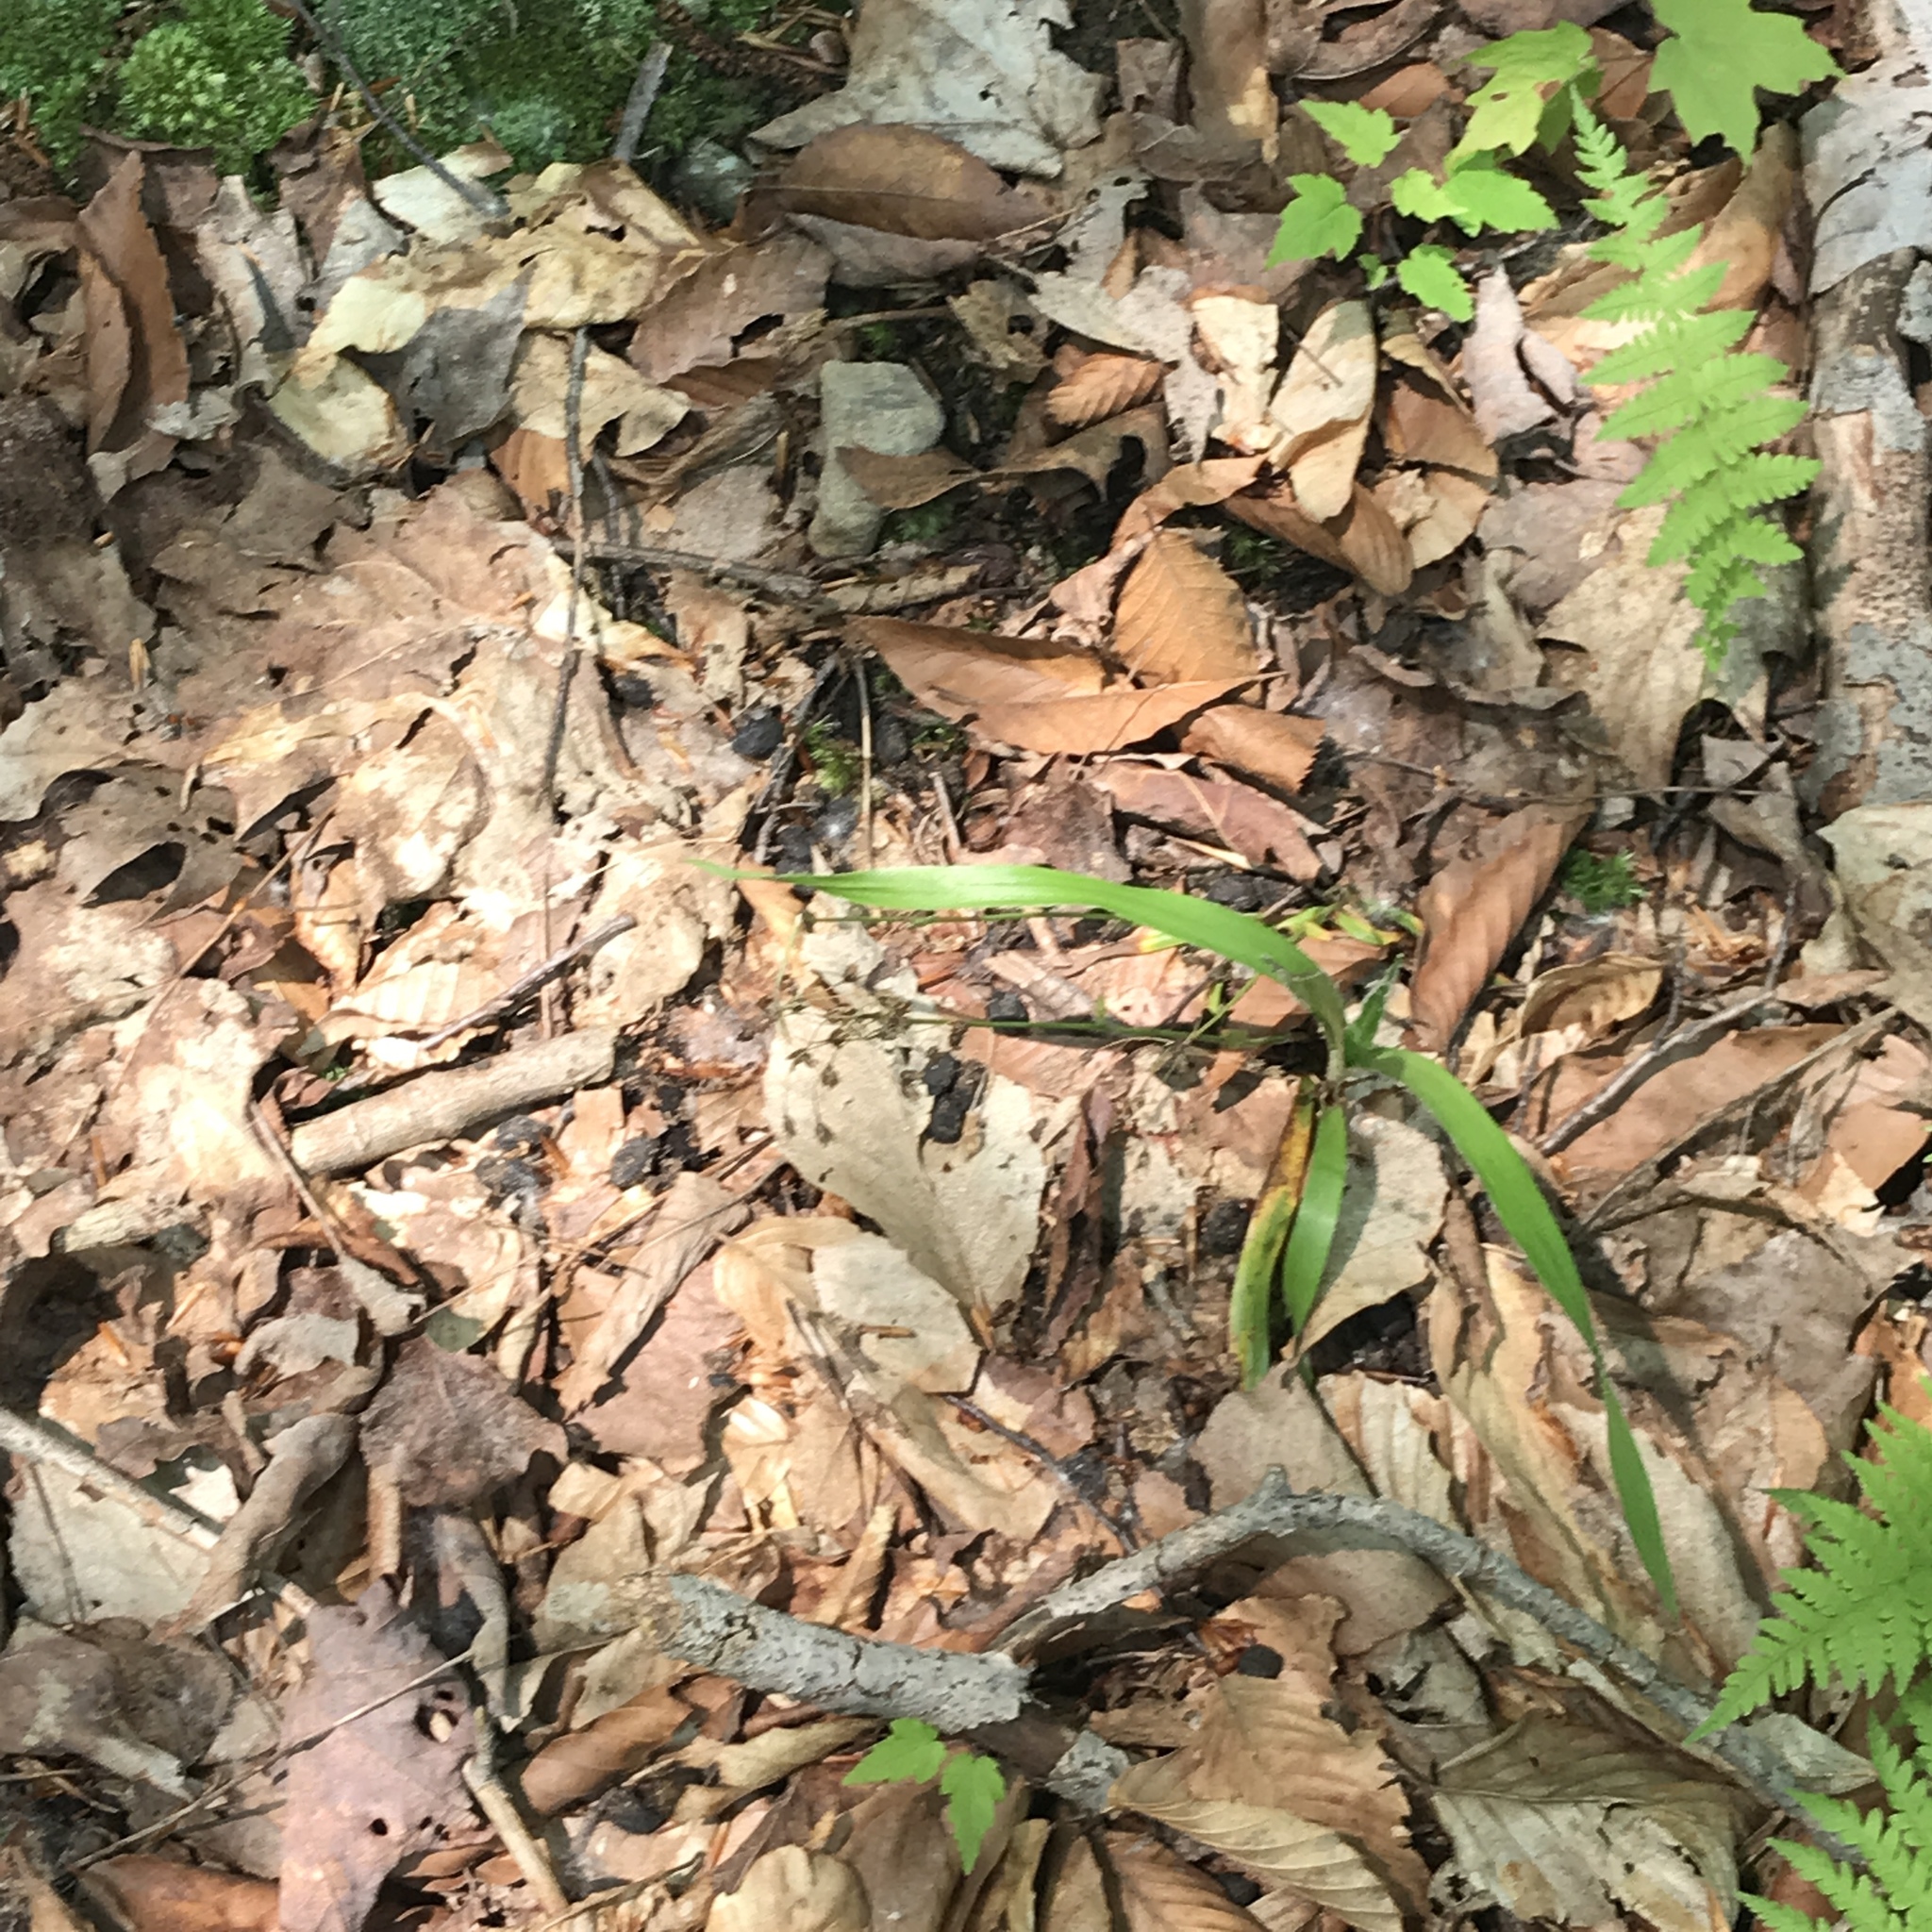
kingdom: Plantae
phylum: Tracheophyta
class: Liliopsida
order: Poales
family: Juncaceae
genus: Luzula
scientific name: Luzula acuminata
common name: Hairy woodrush
